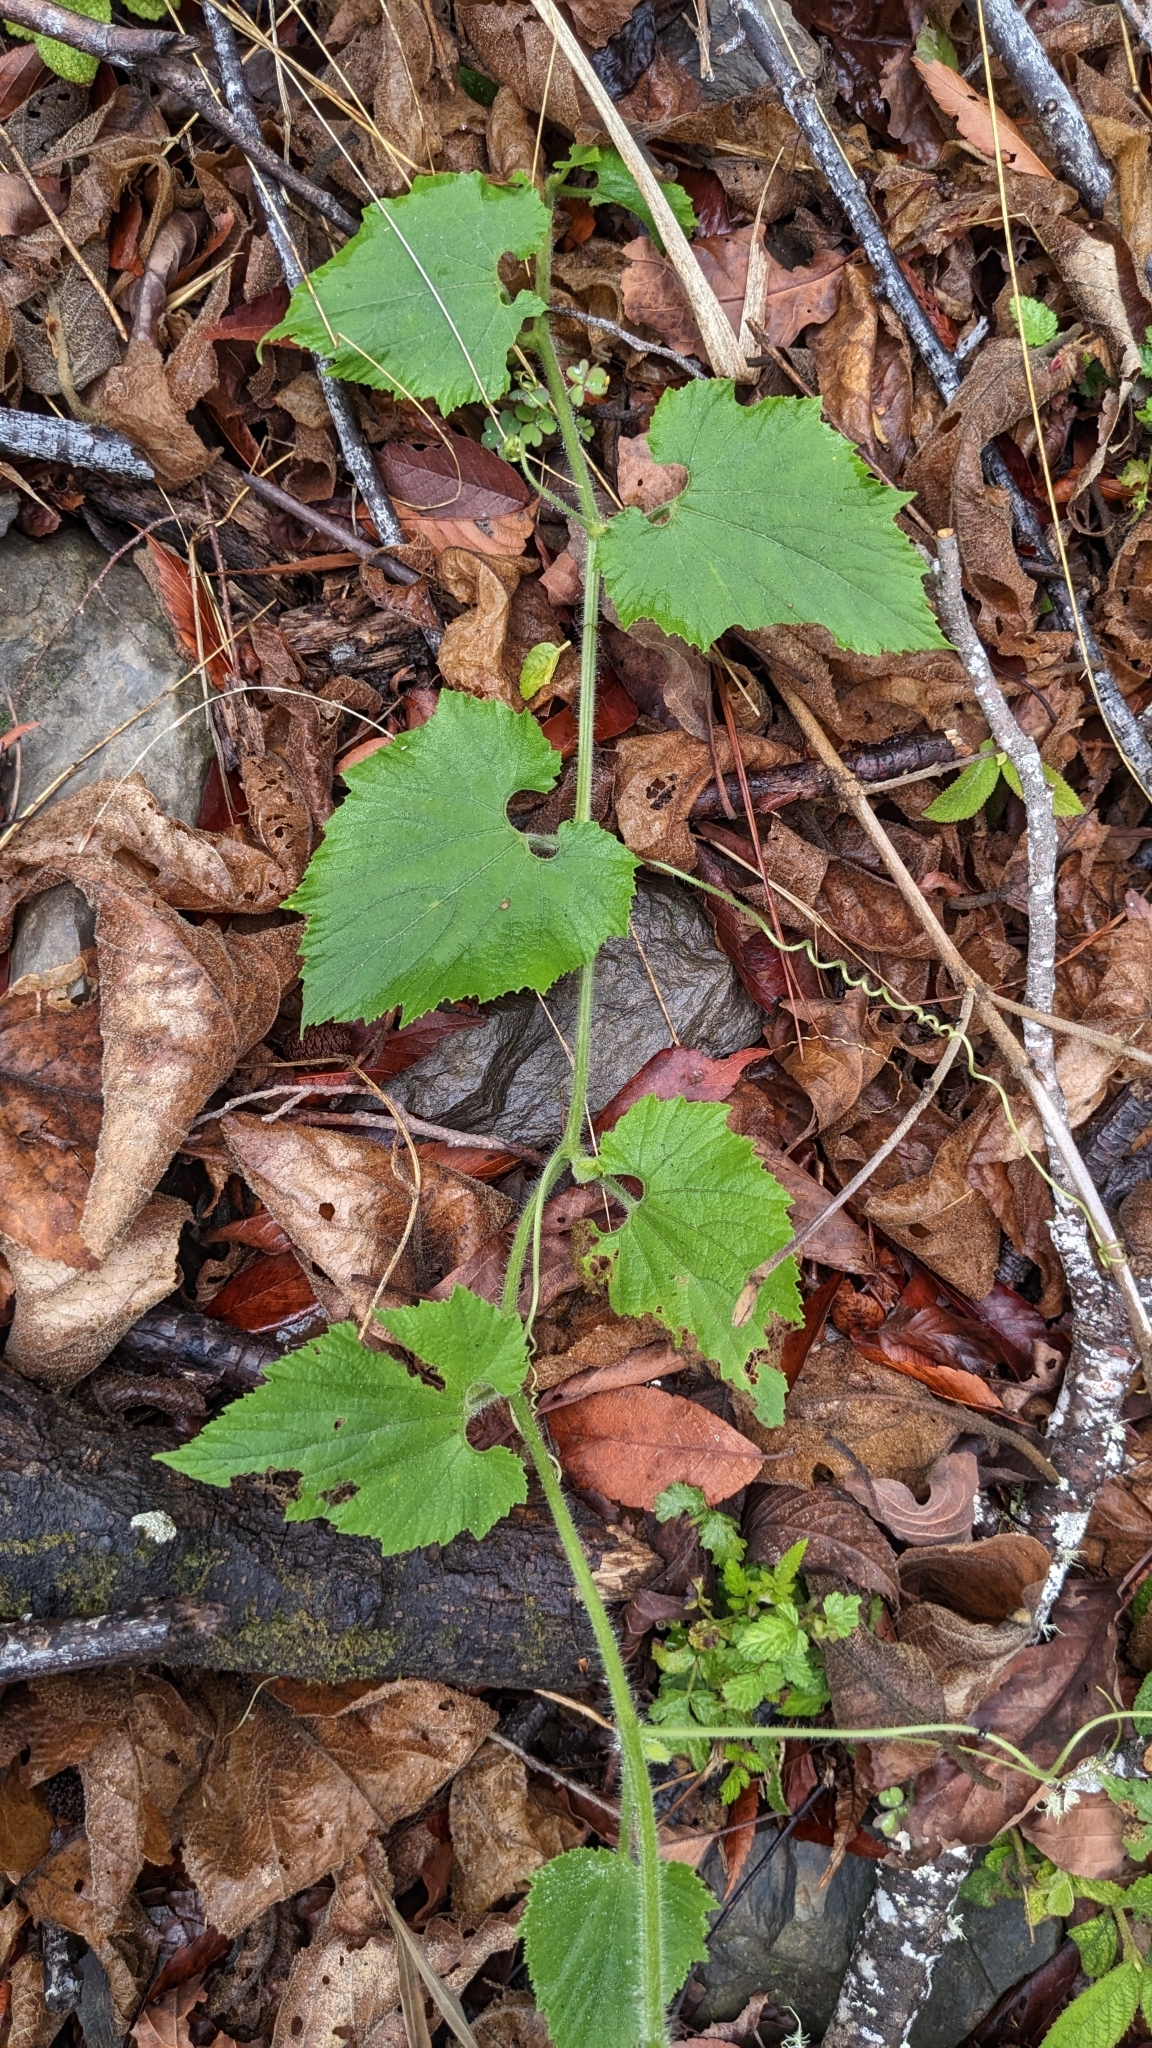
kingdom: Plantae
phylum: Tracheophyta
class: Magnoliopsida
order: Cucurbitales
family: Cucurbitaceae
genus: Thladiantha
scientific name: Thladiantha nudiflora
